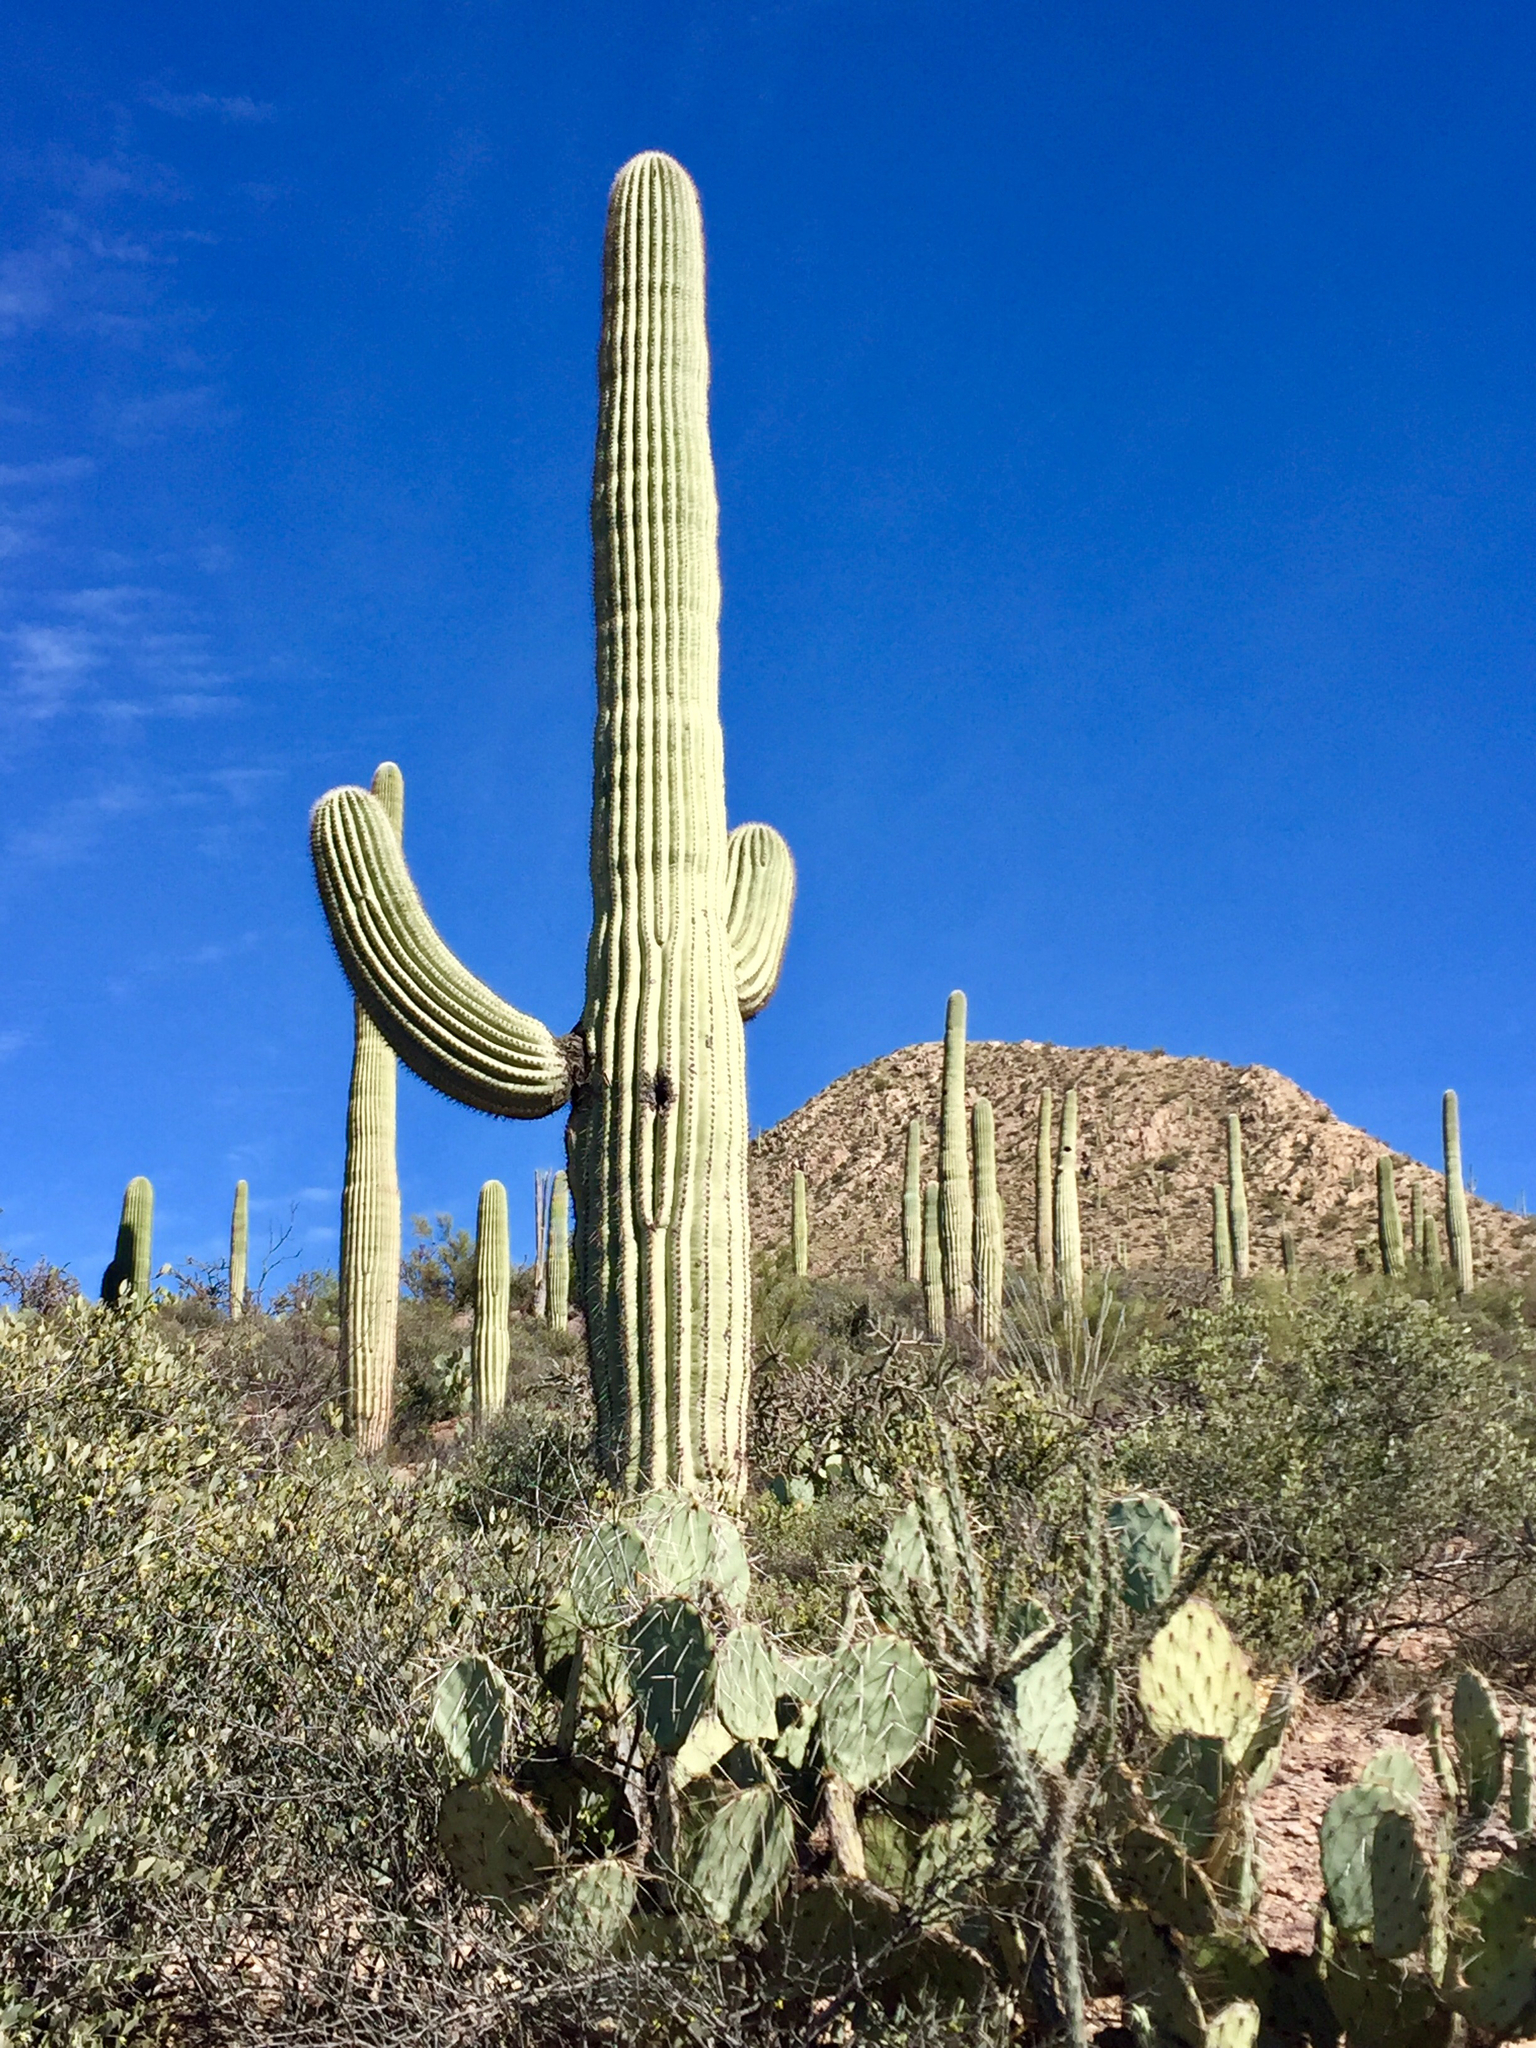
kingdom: Plantae
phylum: Tracheophyta
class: Magnoliopsida
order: Caryophyllales
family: Cactaceae
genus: Carnegiea
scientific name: Carnegiea gigantea
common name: Saguaro
